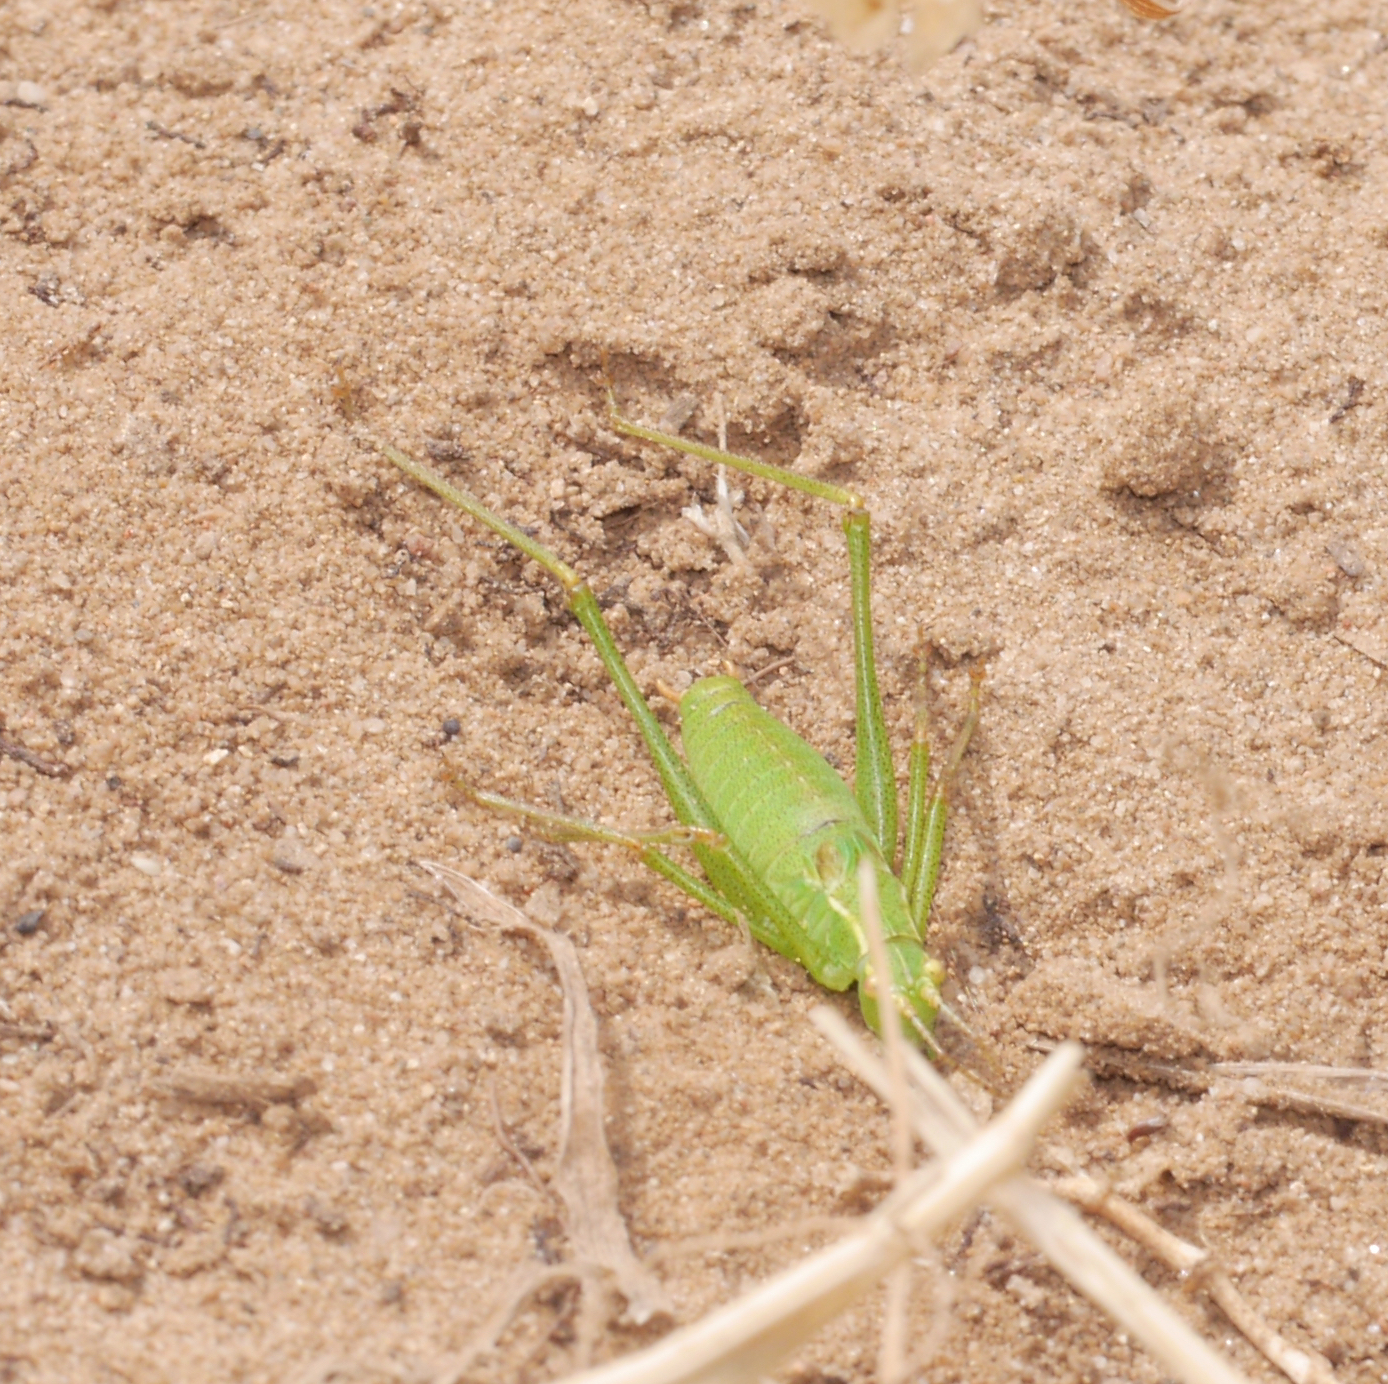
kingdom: Animalia
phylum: Arthropoda
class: Insecta
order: Orthoptera
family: Tettigoniidae
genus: Leptophyes
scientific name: Leptophyes punctatissima
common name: Speckled bush-cricket
